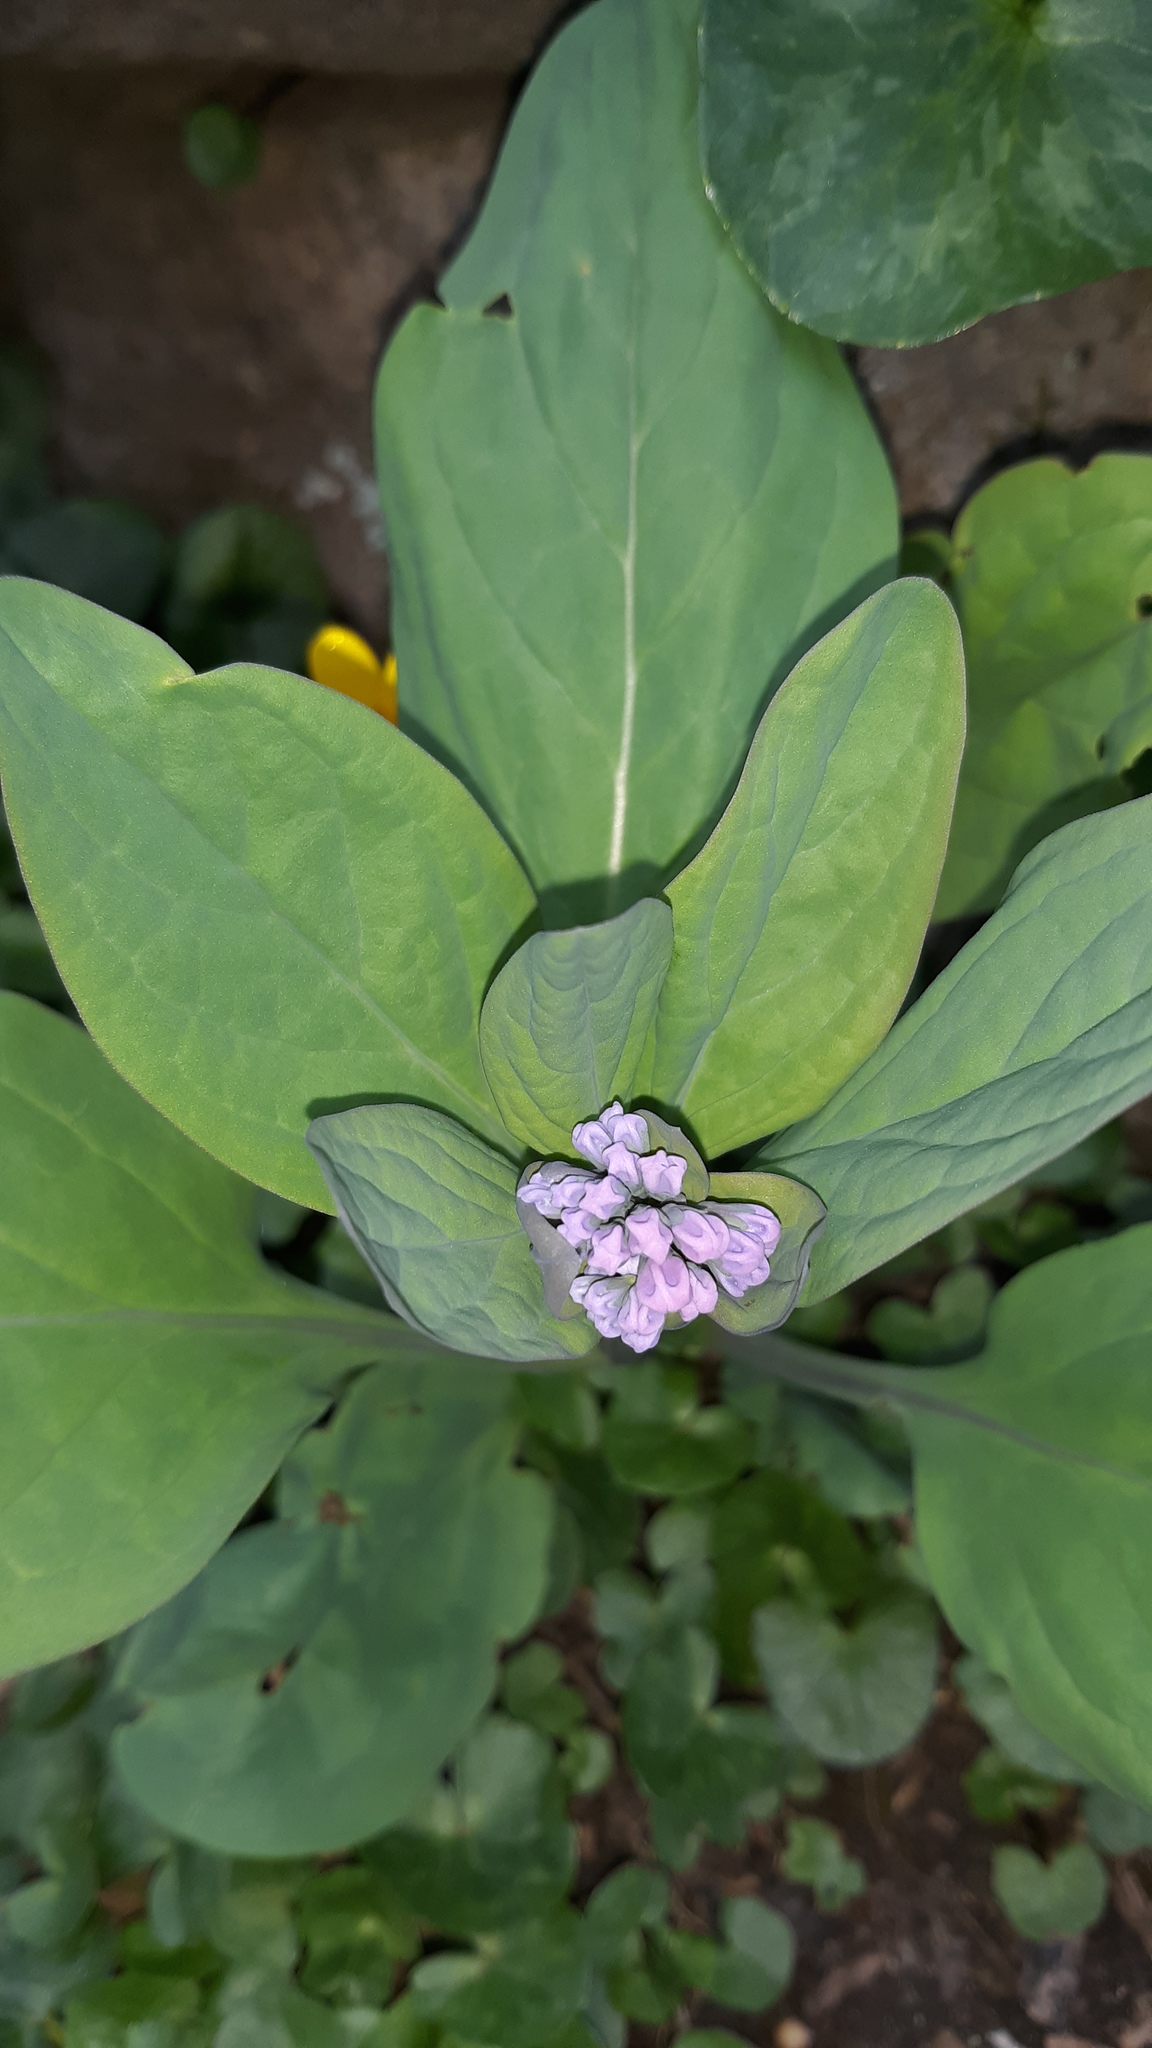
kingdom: Plantae
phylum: Tracheophyta
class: Magnoliopsida
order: Boraginales
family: Boraginaceae
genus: Mertensia
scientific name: Mertensia virginica
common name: Virginia bluebells
